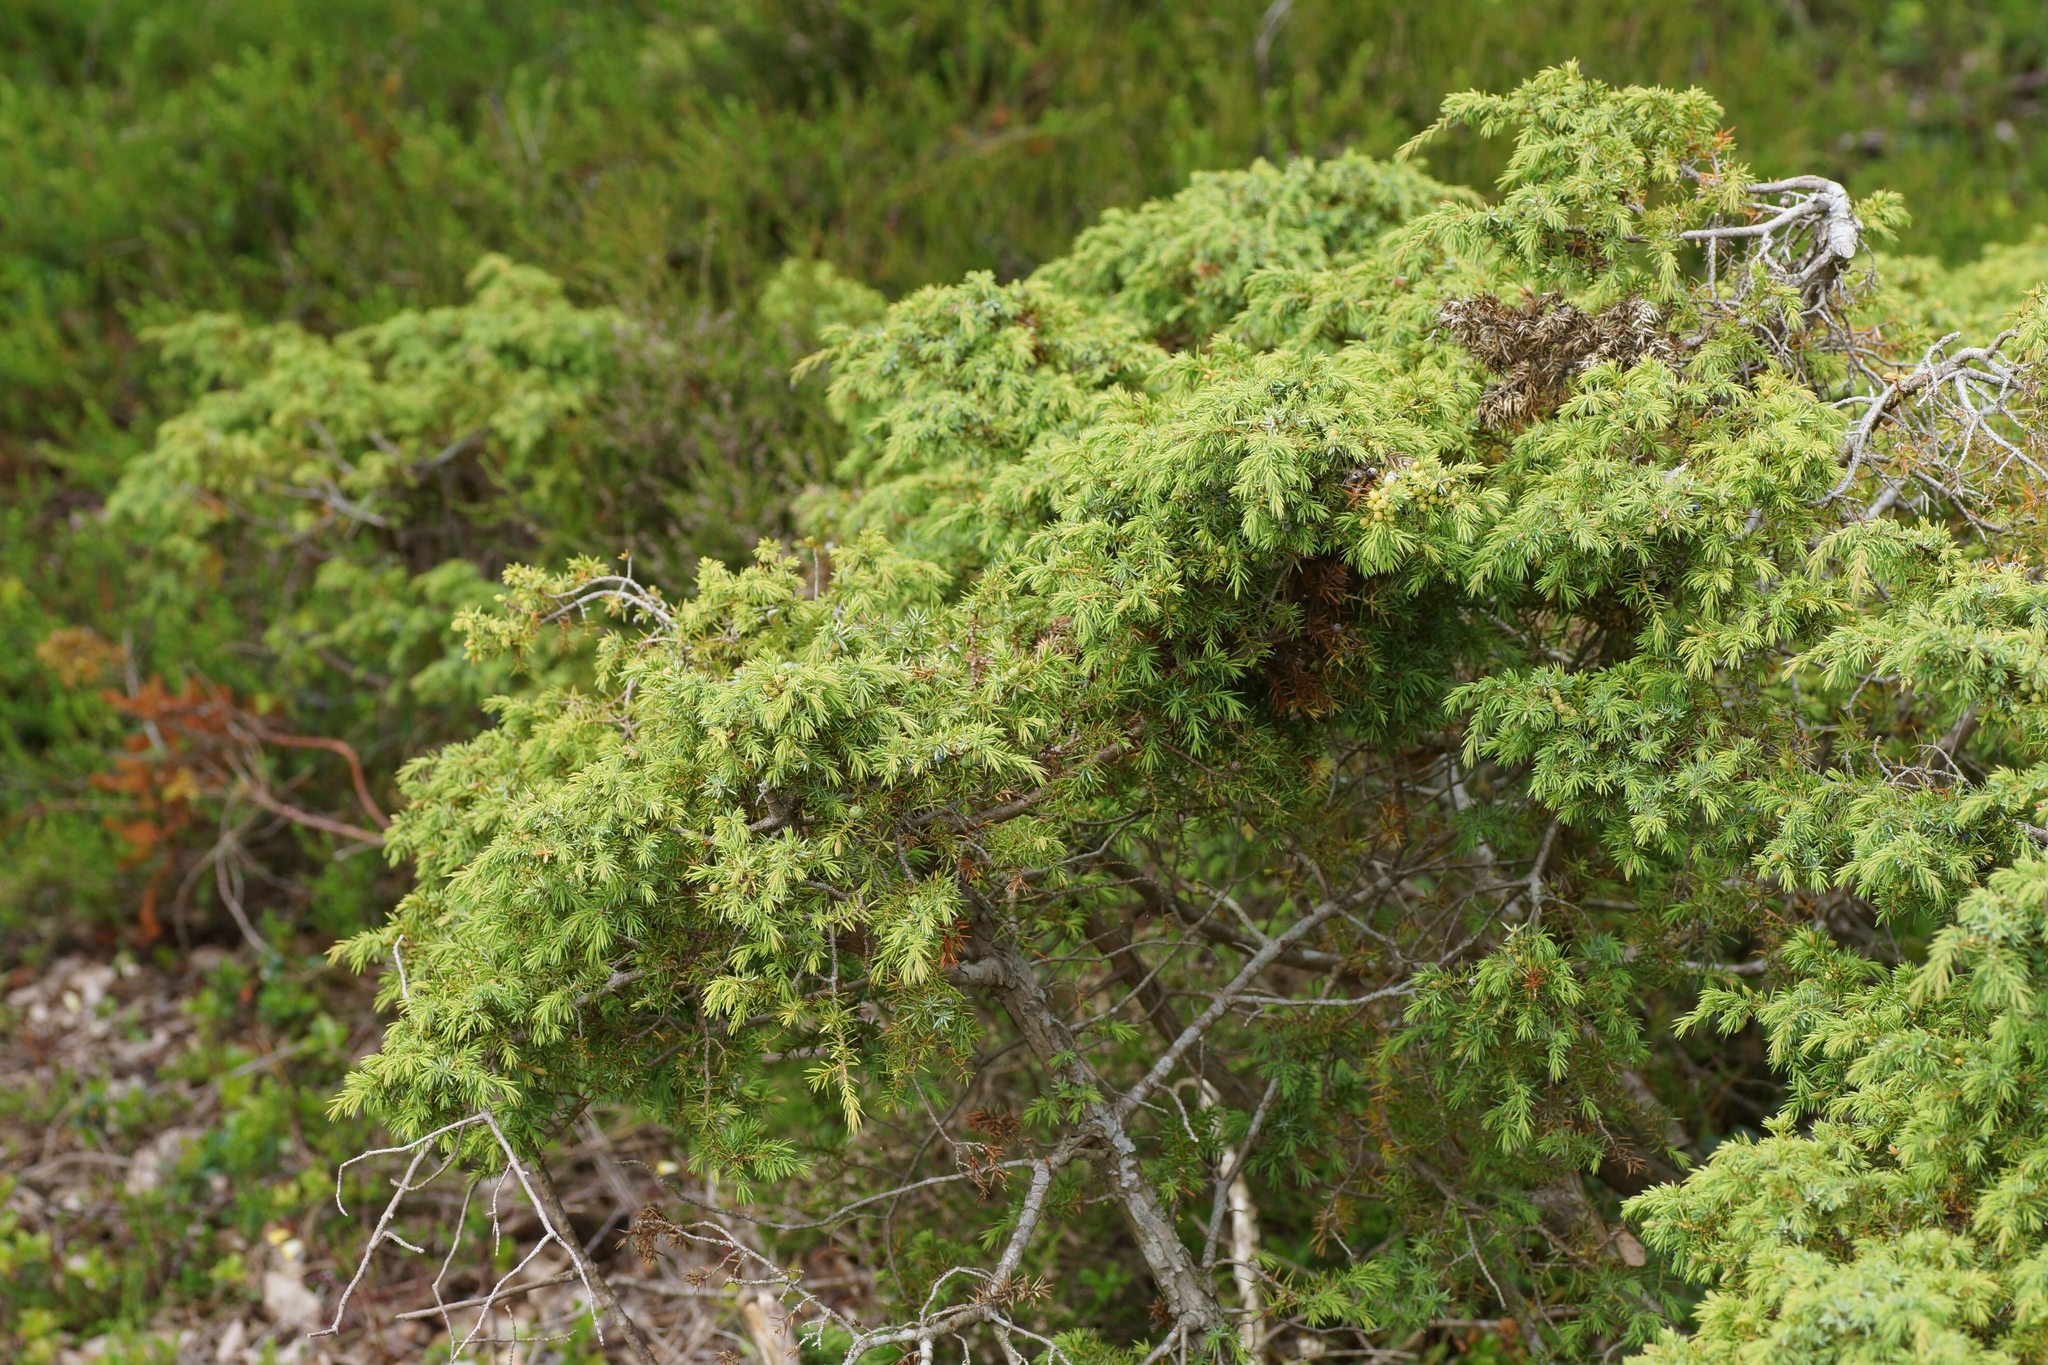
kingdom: Plantae
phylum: Tracheophyta
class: Pinopsida
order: Pinales
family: Cupressaceae
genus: Juniperus
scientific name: Juniperus communis
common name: Common juniper
